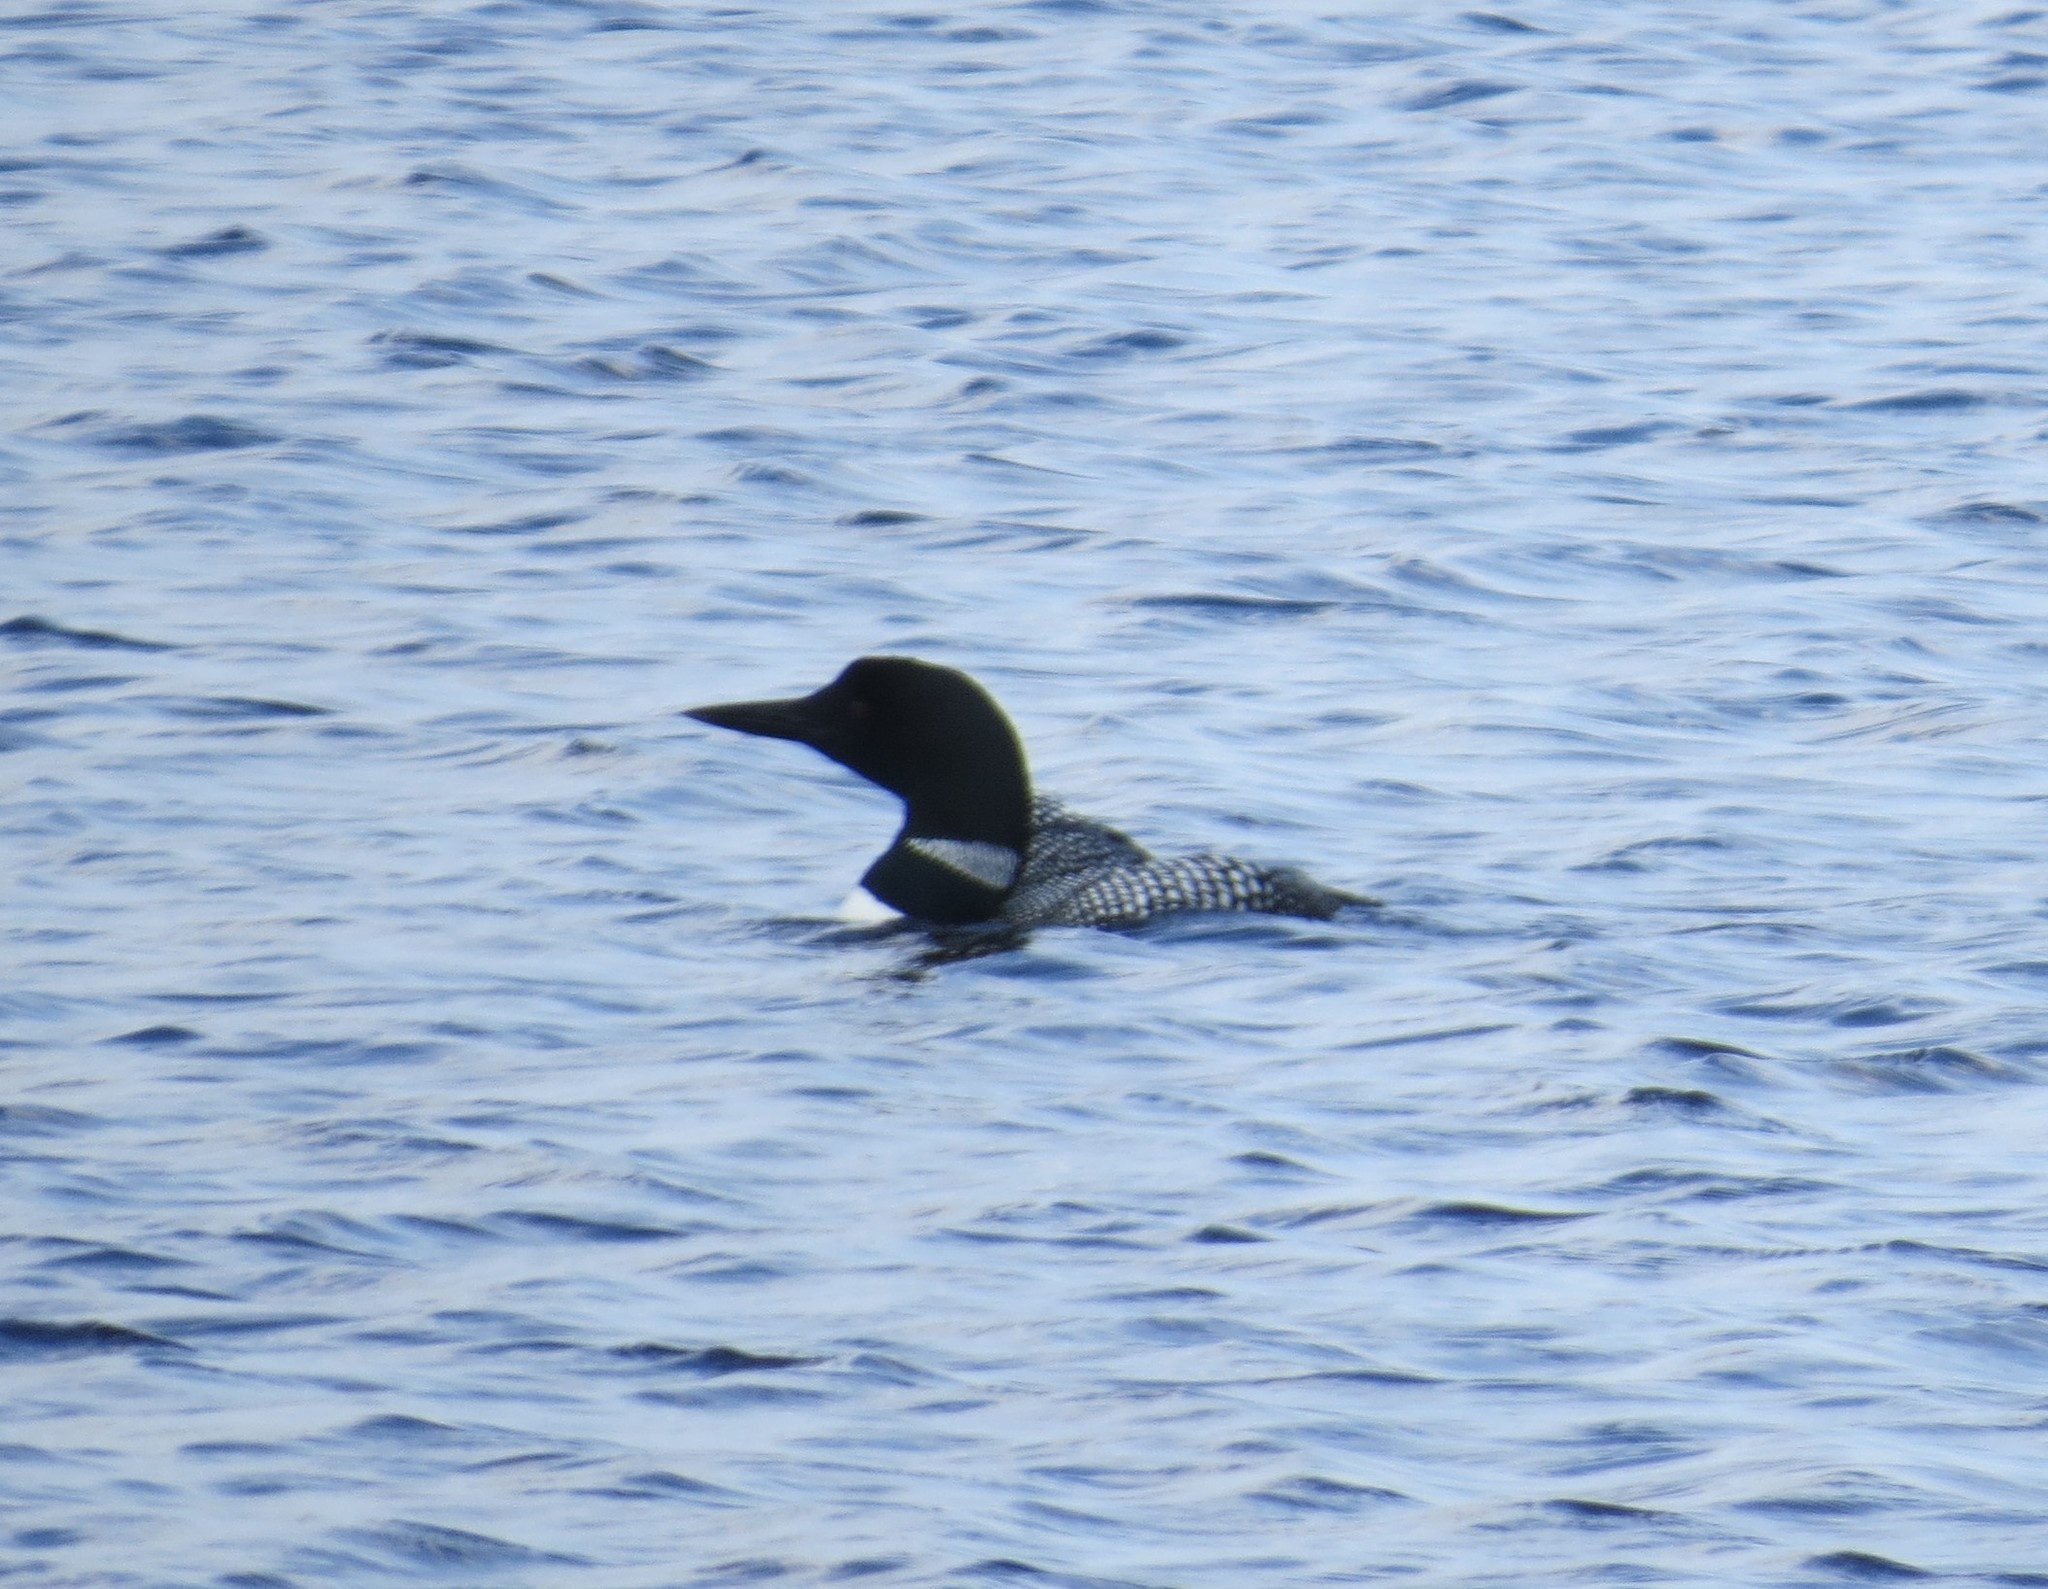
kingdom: Animalia
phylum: Chordata
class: Aves
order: Gaviiformes
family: Gaviidae
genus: Gavia
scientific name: Gavia immer
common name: Common loon
